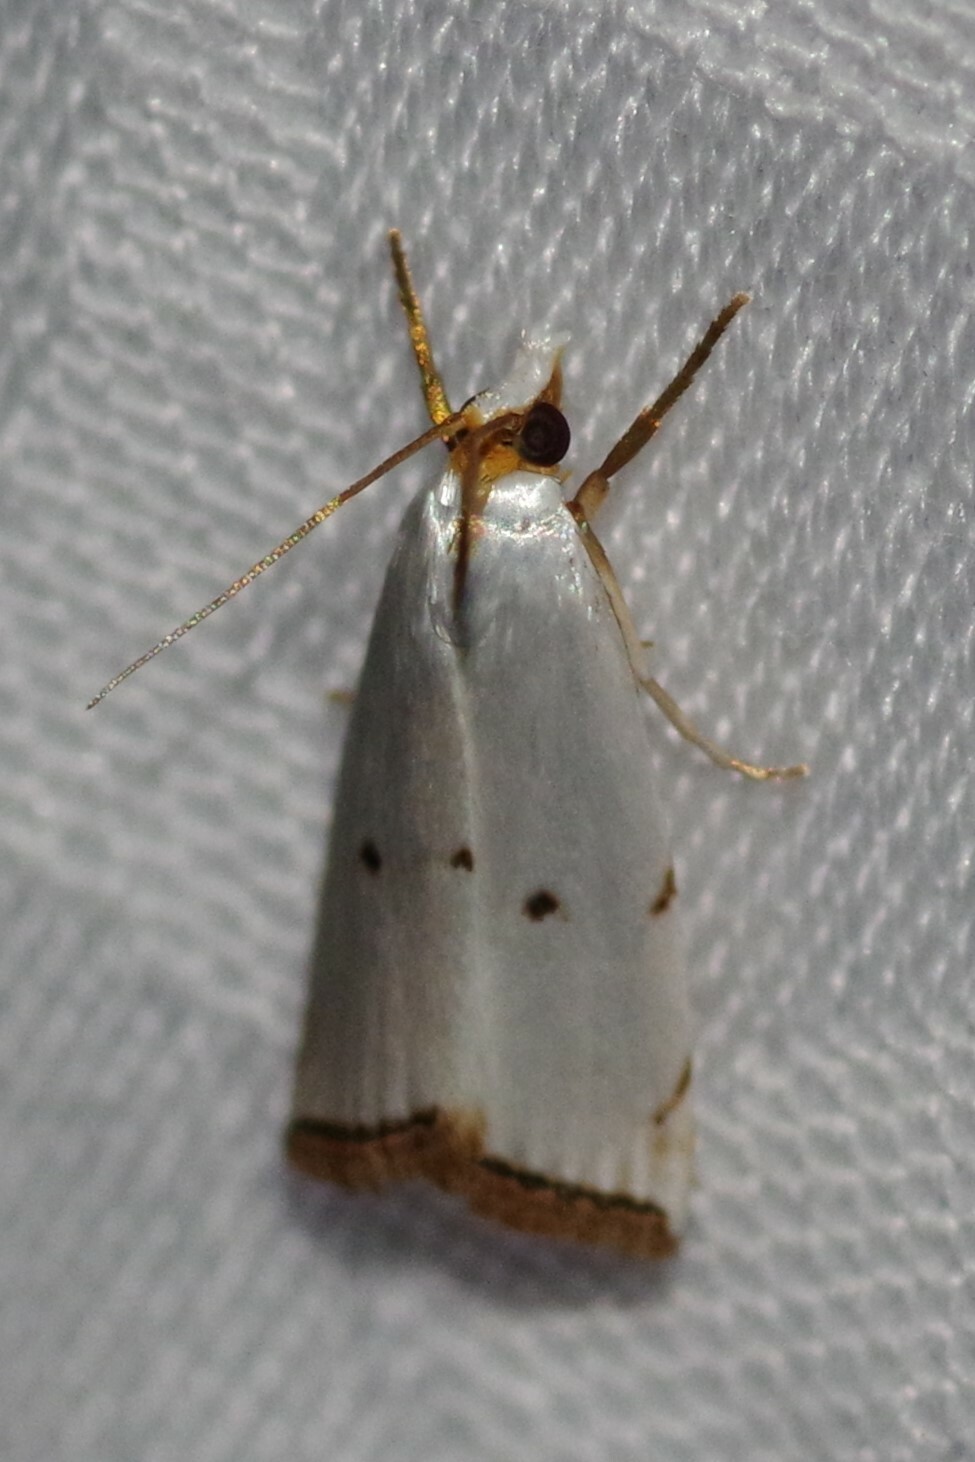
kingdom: Animalia
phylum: Arthropoda
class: Insecta
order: Lepidoptera
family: Crambidae
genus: Argyria
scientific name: Argyria pusillalis
